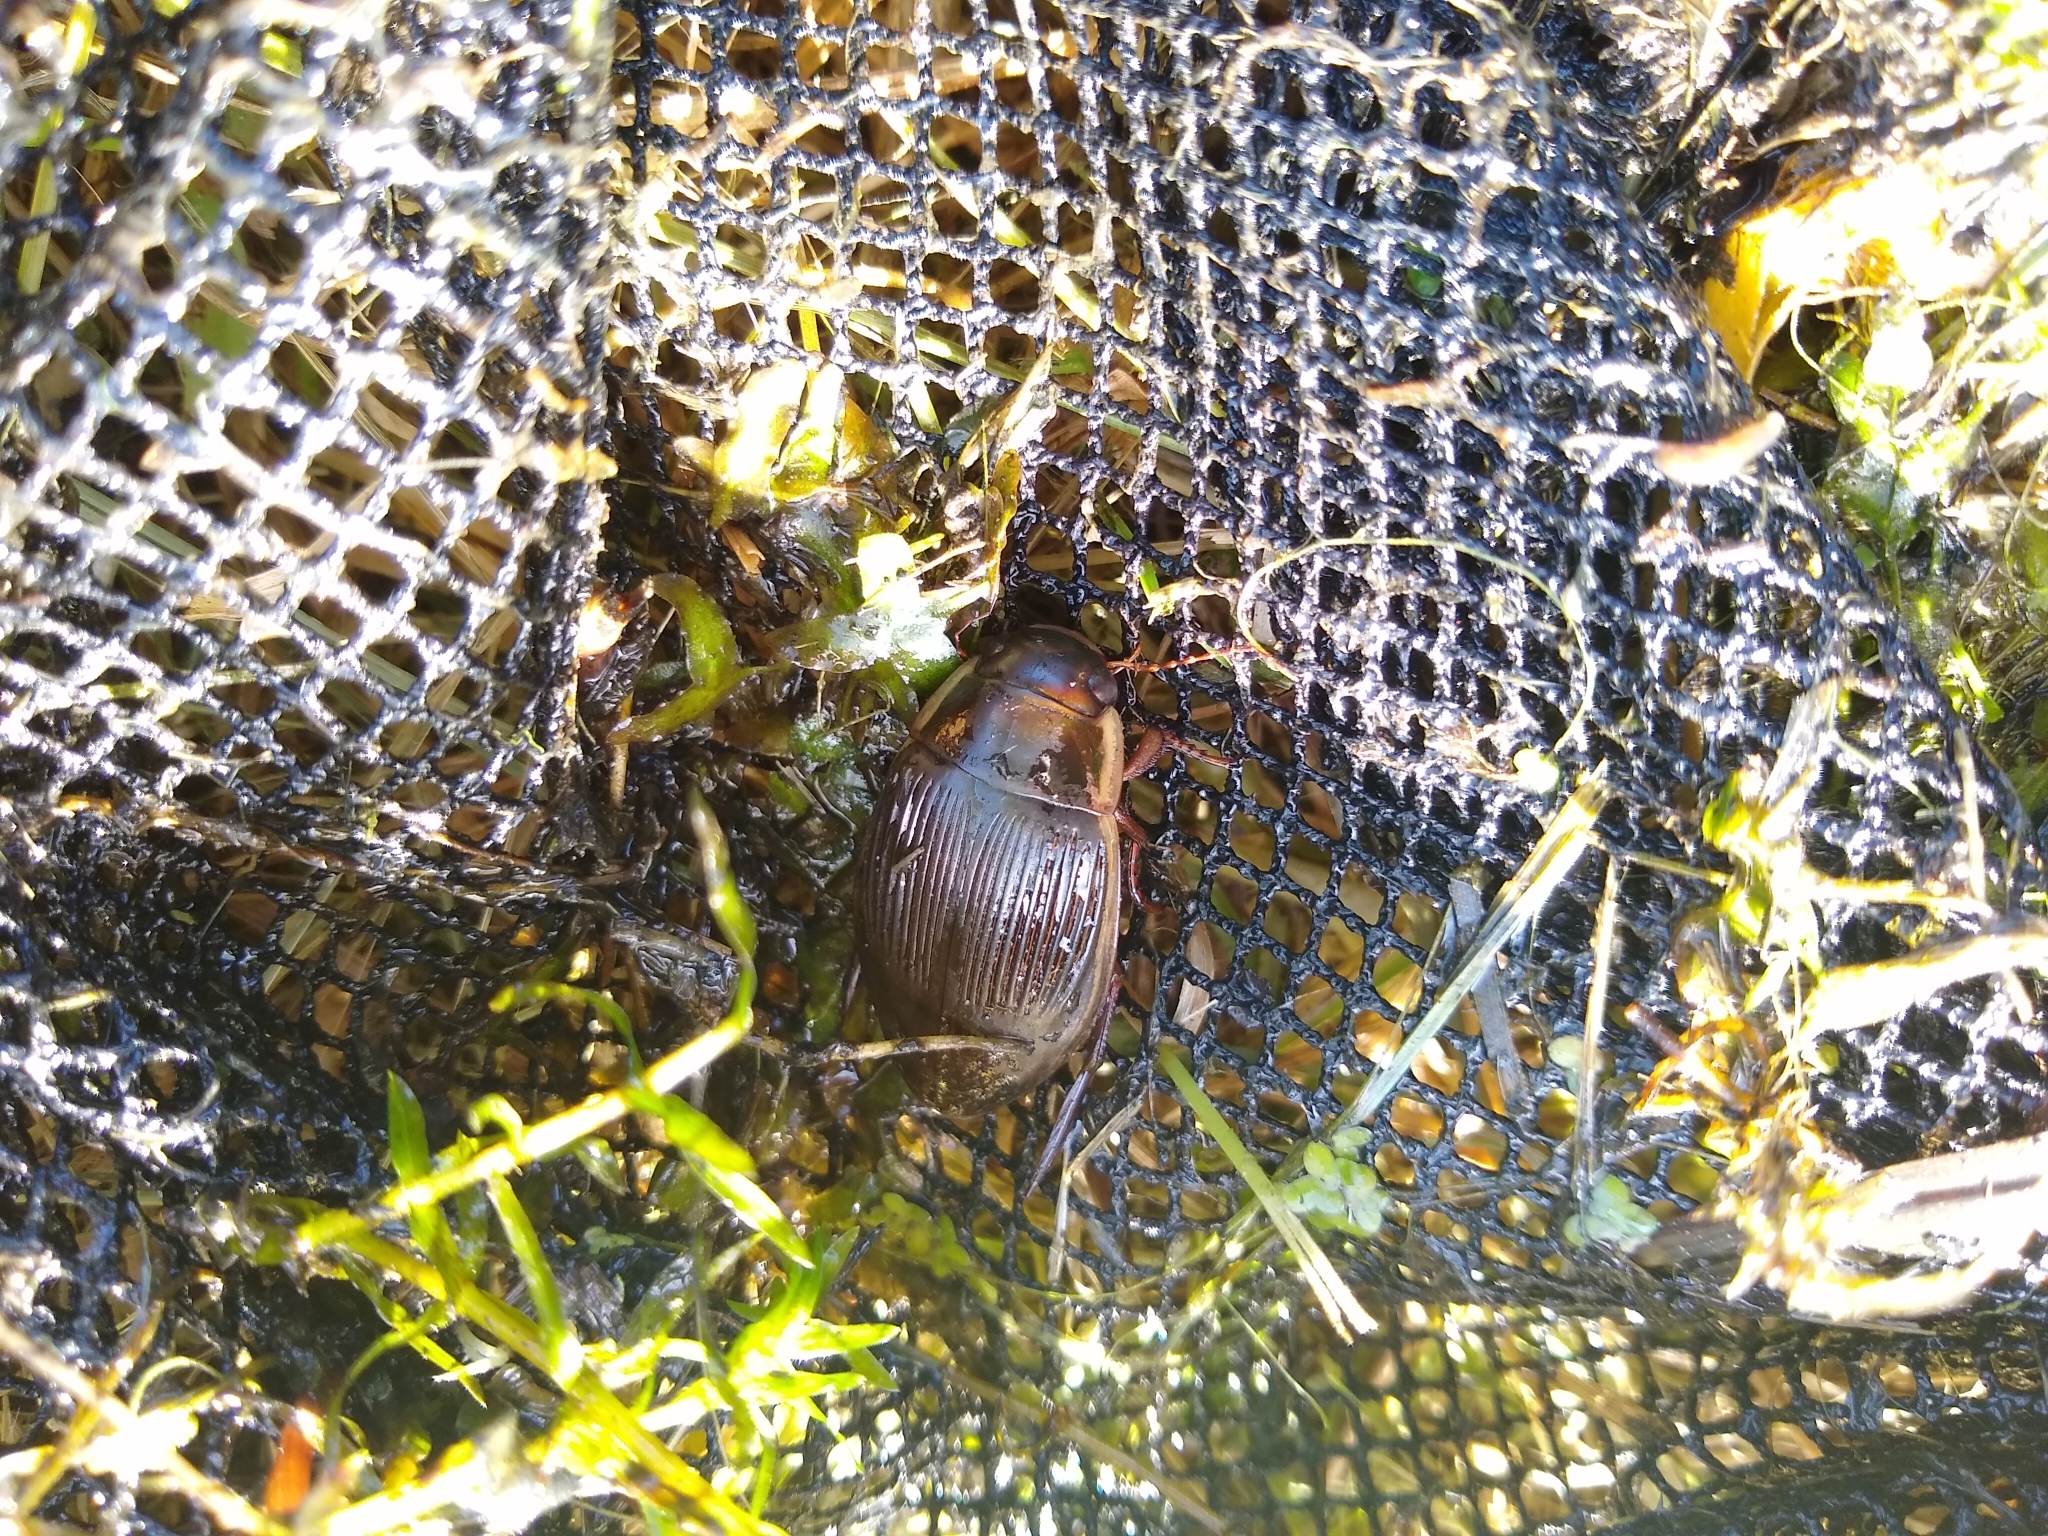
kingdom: Animalia
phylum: Arthropoda
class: Insecta
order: Coleoptera
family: Dytiscidae
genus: Dytiscus
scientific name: Dytiscus dimidiatus
